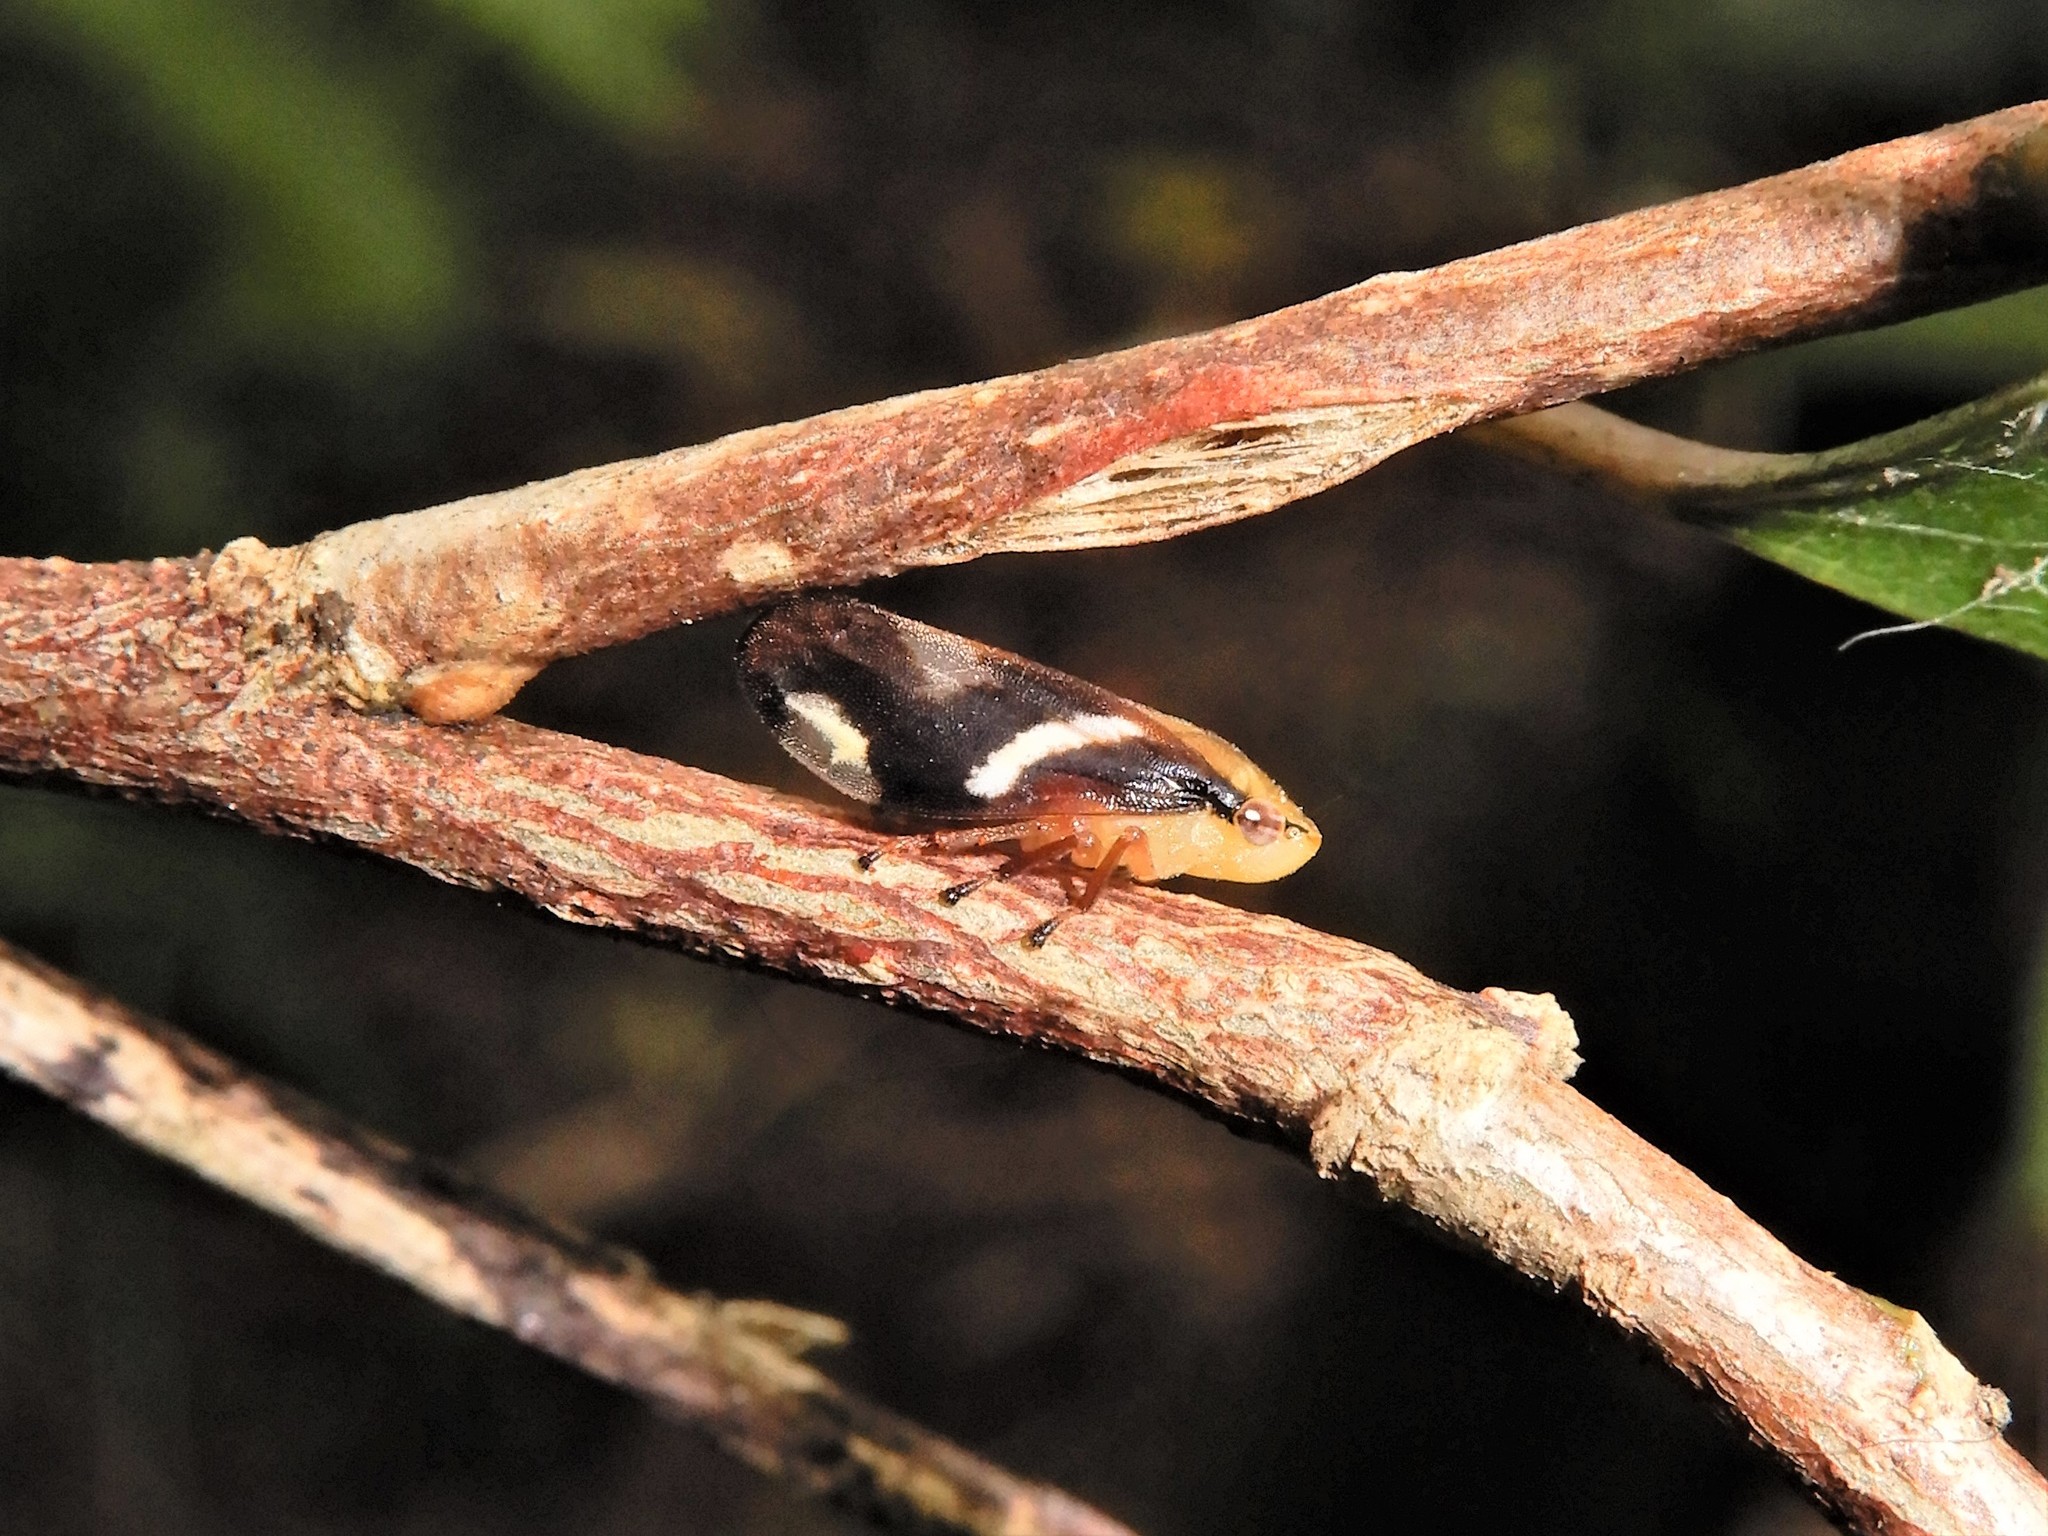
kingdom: Animalia
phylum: Arthropoda
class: Insecta
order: Hemiptera
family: Aphrophoridae
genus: Carystoterpa
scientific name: Carystoterpa fingens
